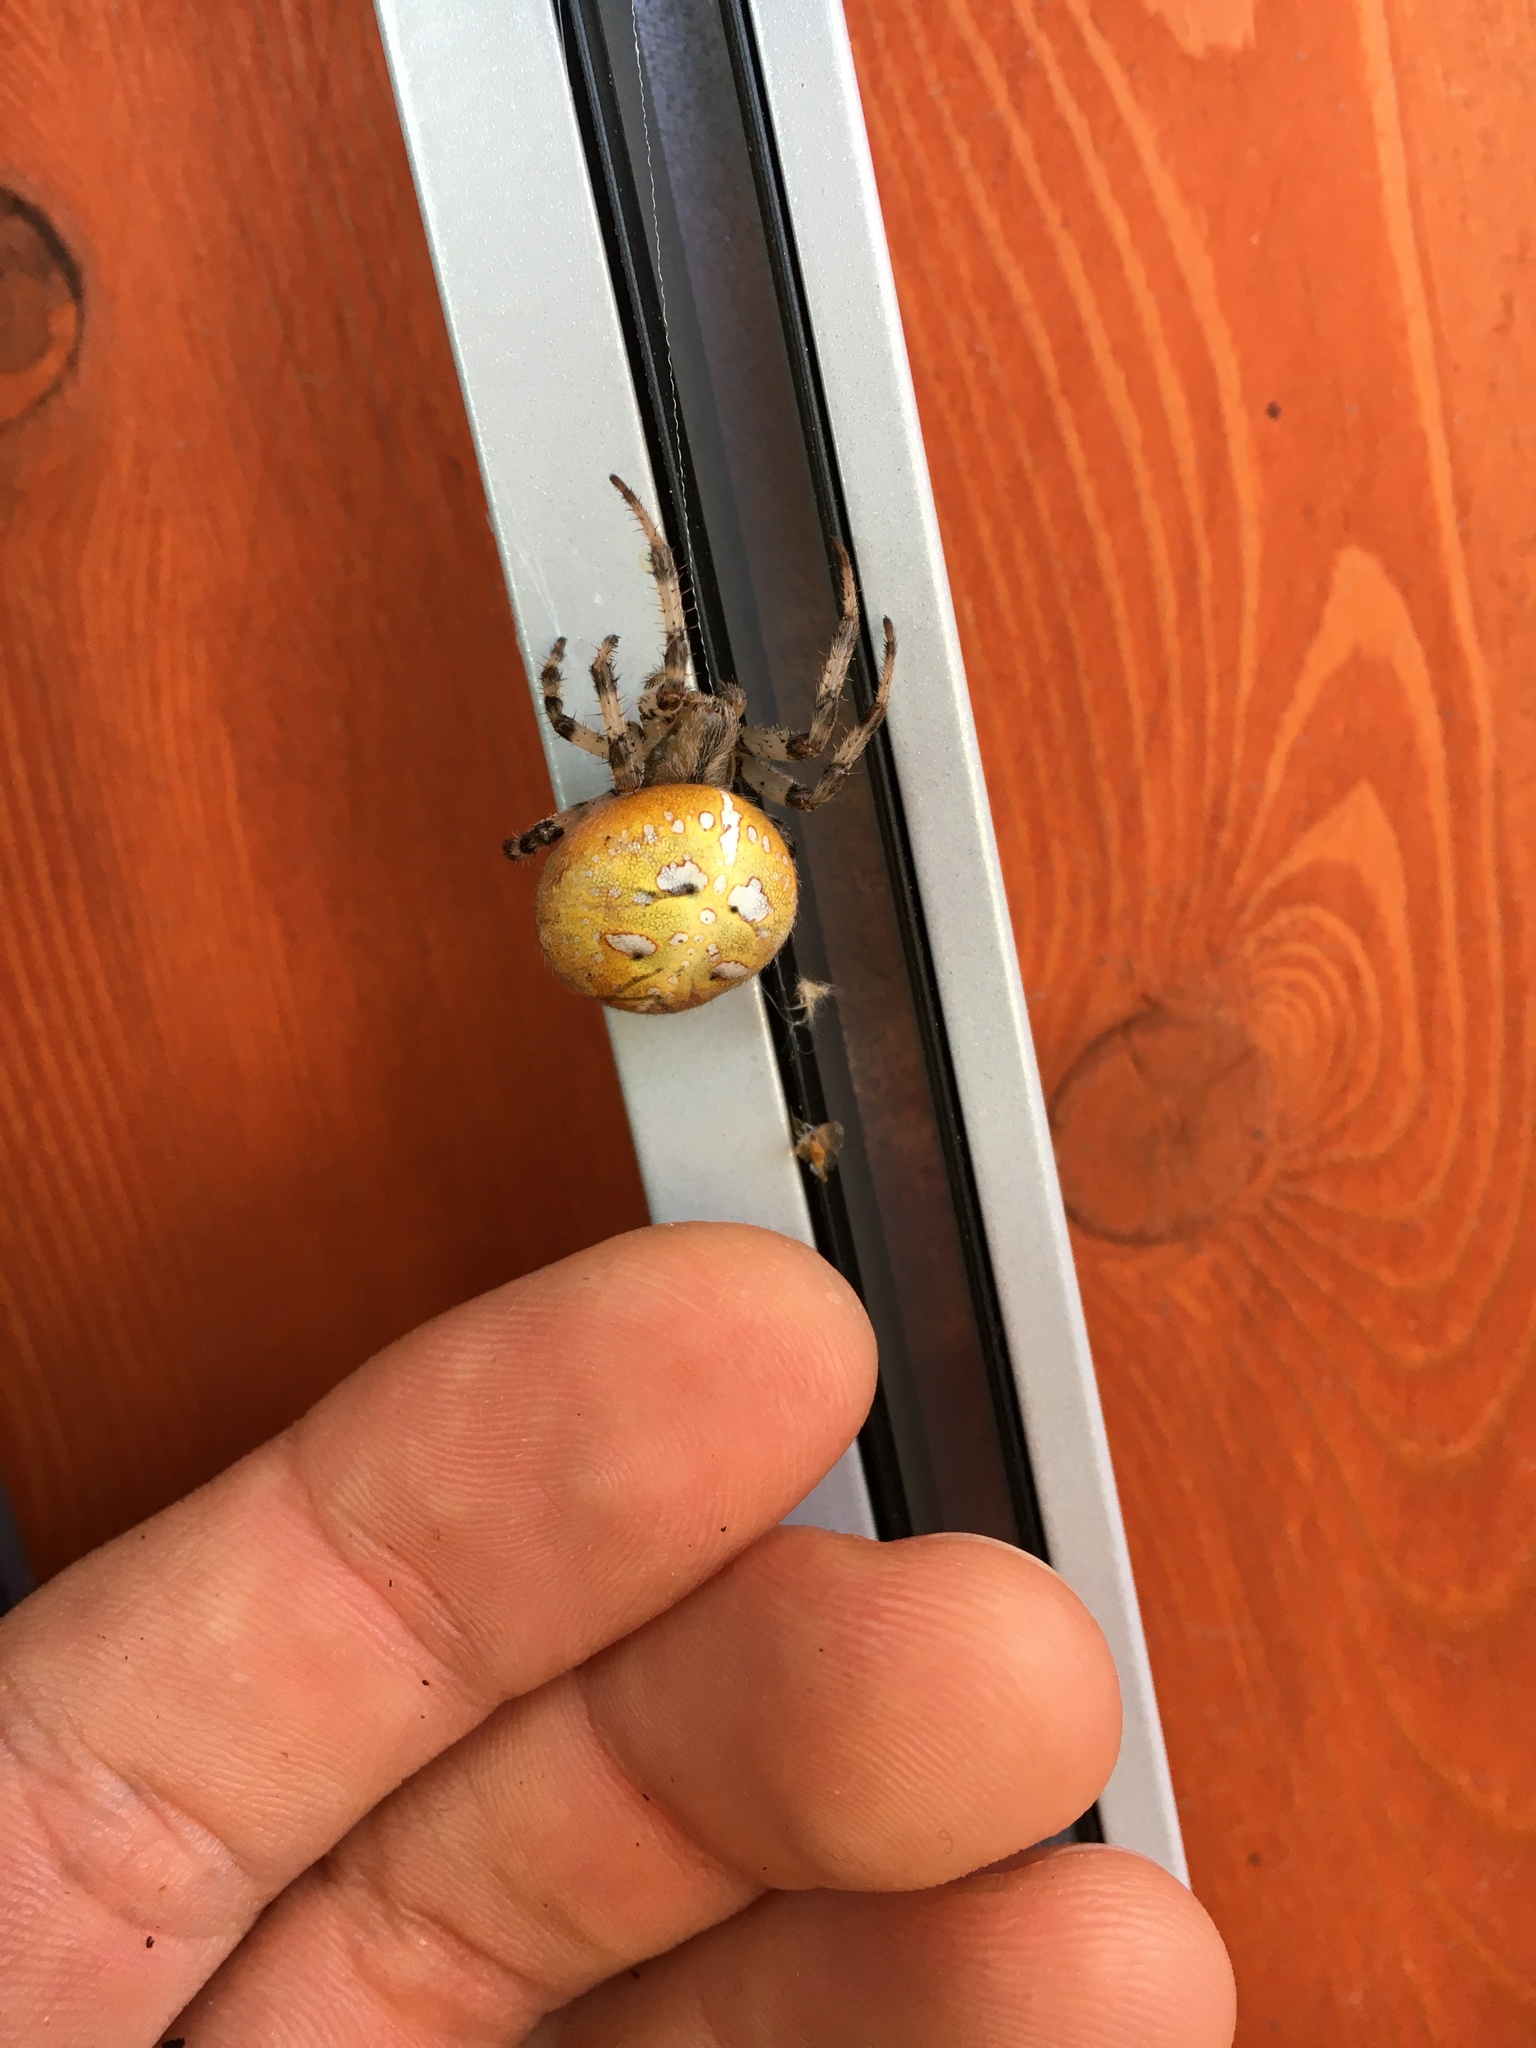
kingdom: Animalia
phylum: Arthropoda
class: Arachnida
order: Araneae
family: Araneidae
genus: Araneus
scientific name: Araneus quadratus
